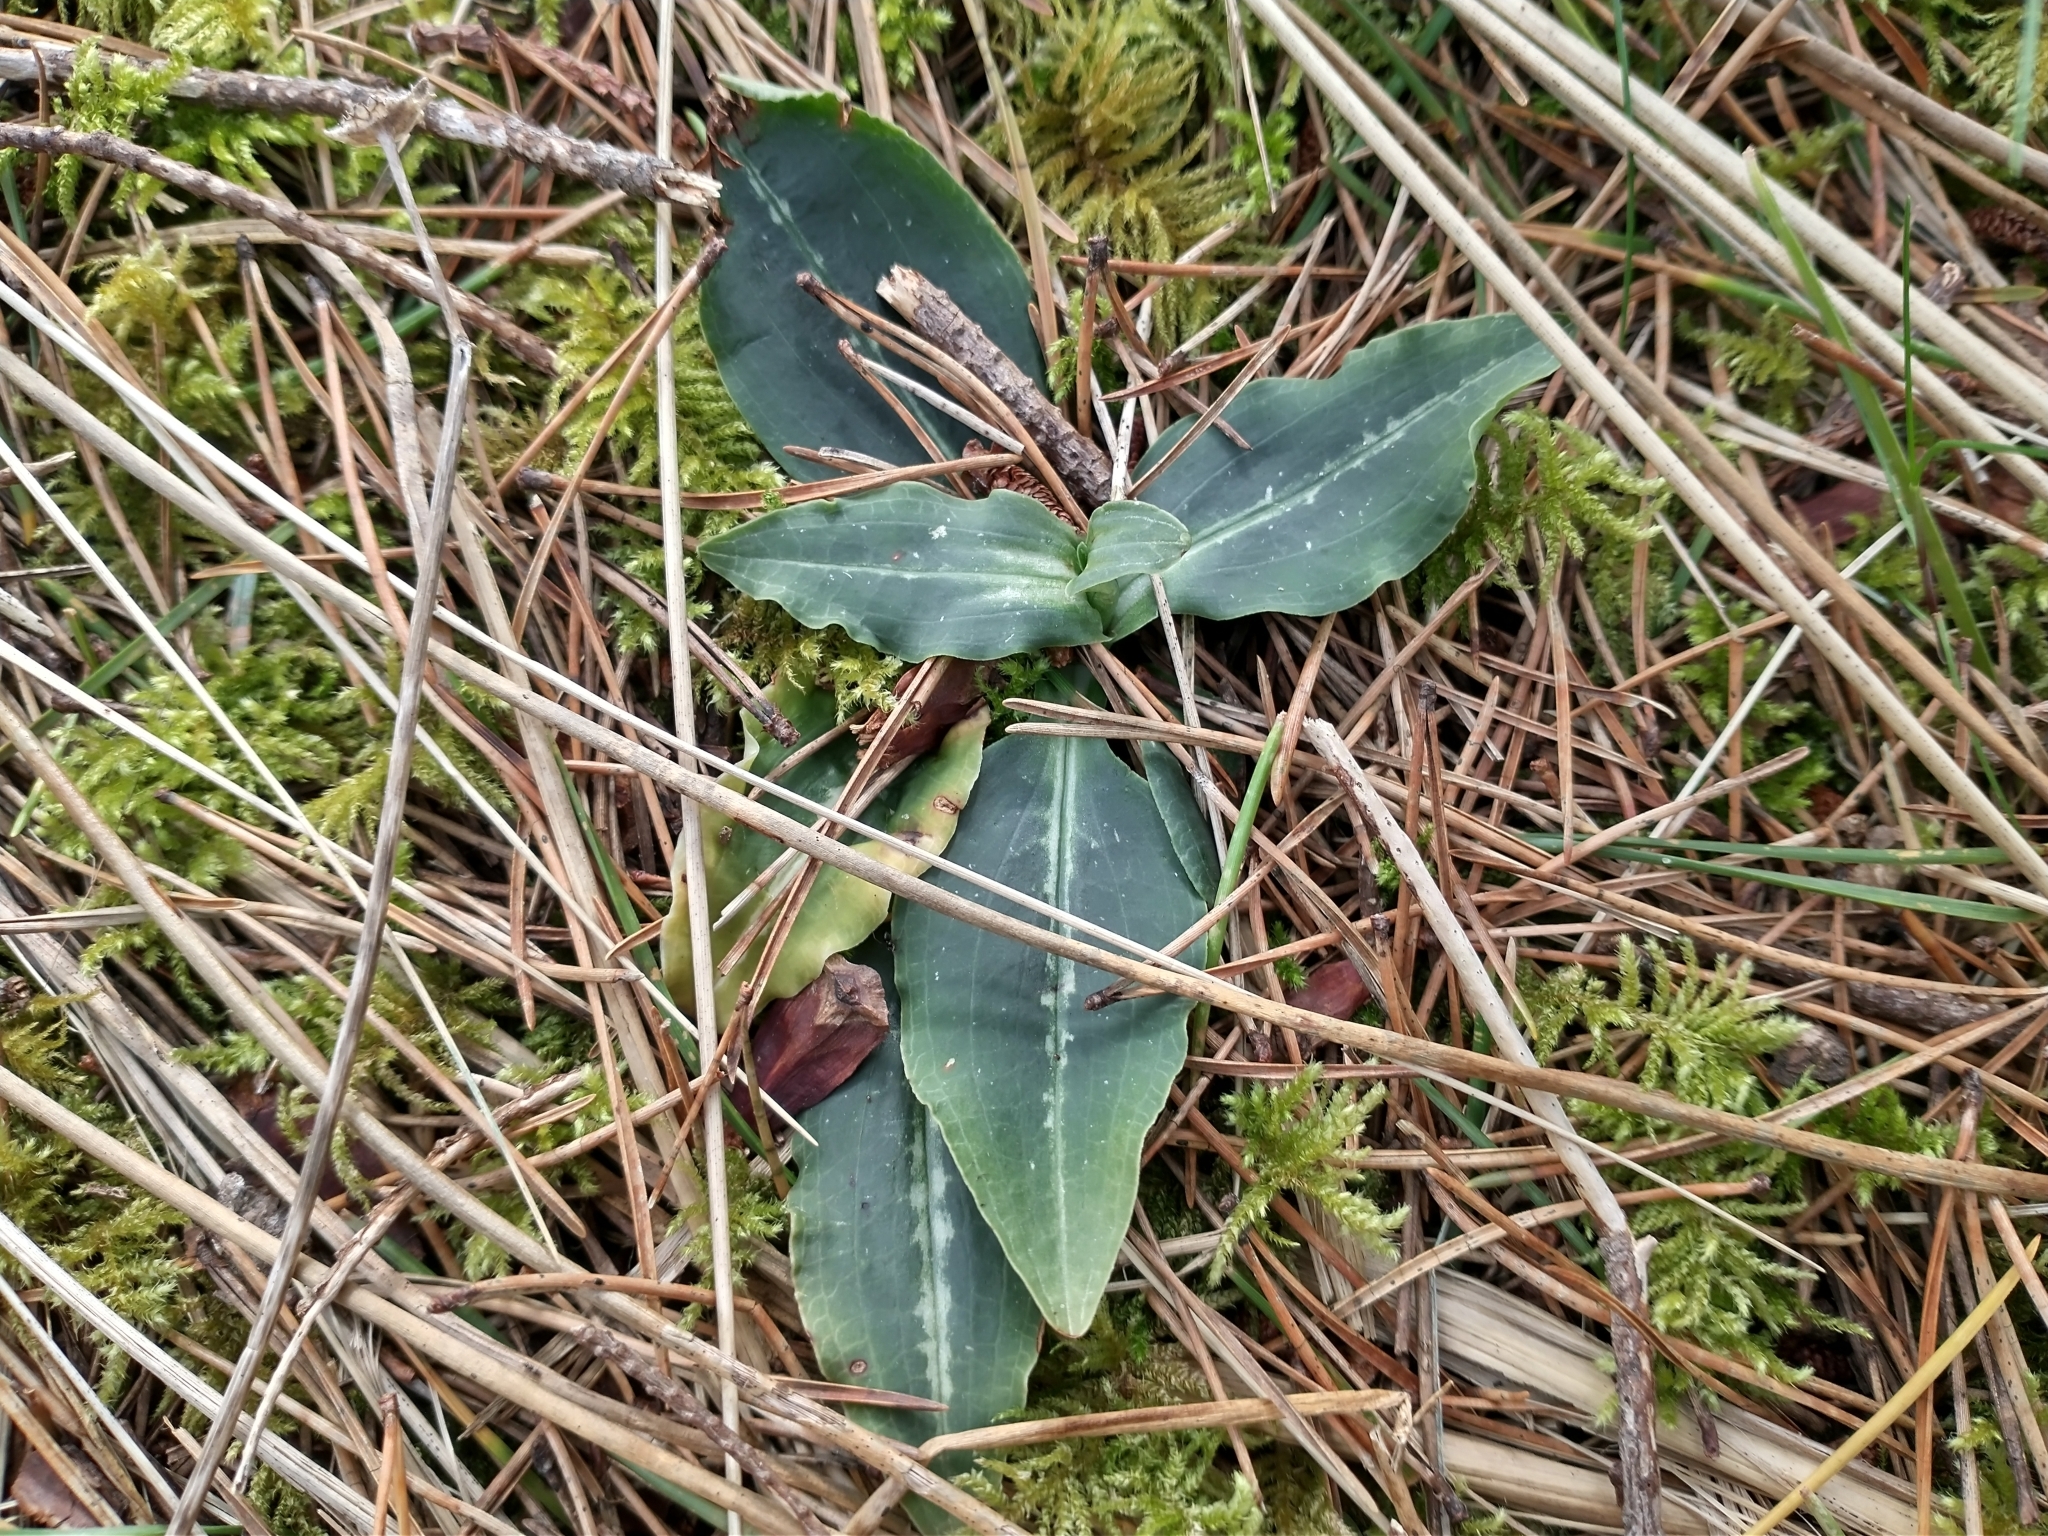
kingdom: Plantae
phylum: Tracheophyta
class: Liliopsida
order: Asparagales
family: Orchidaceae
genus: Goodyera
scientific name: Goodyera oblongifolia
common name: Giant rattlesnake-plantain
